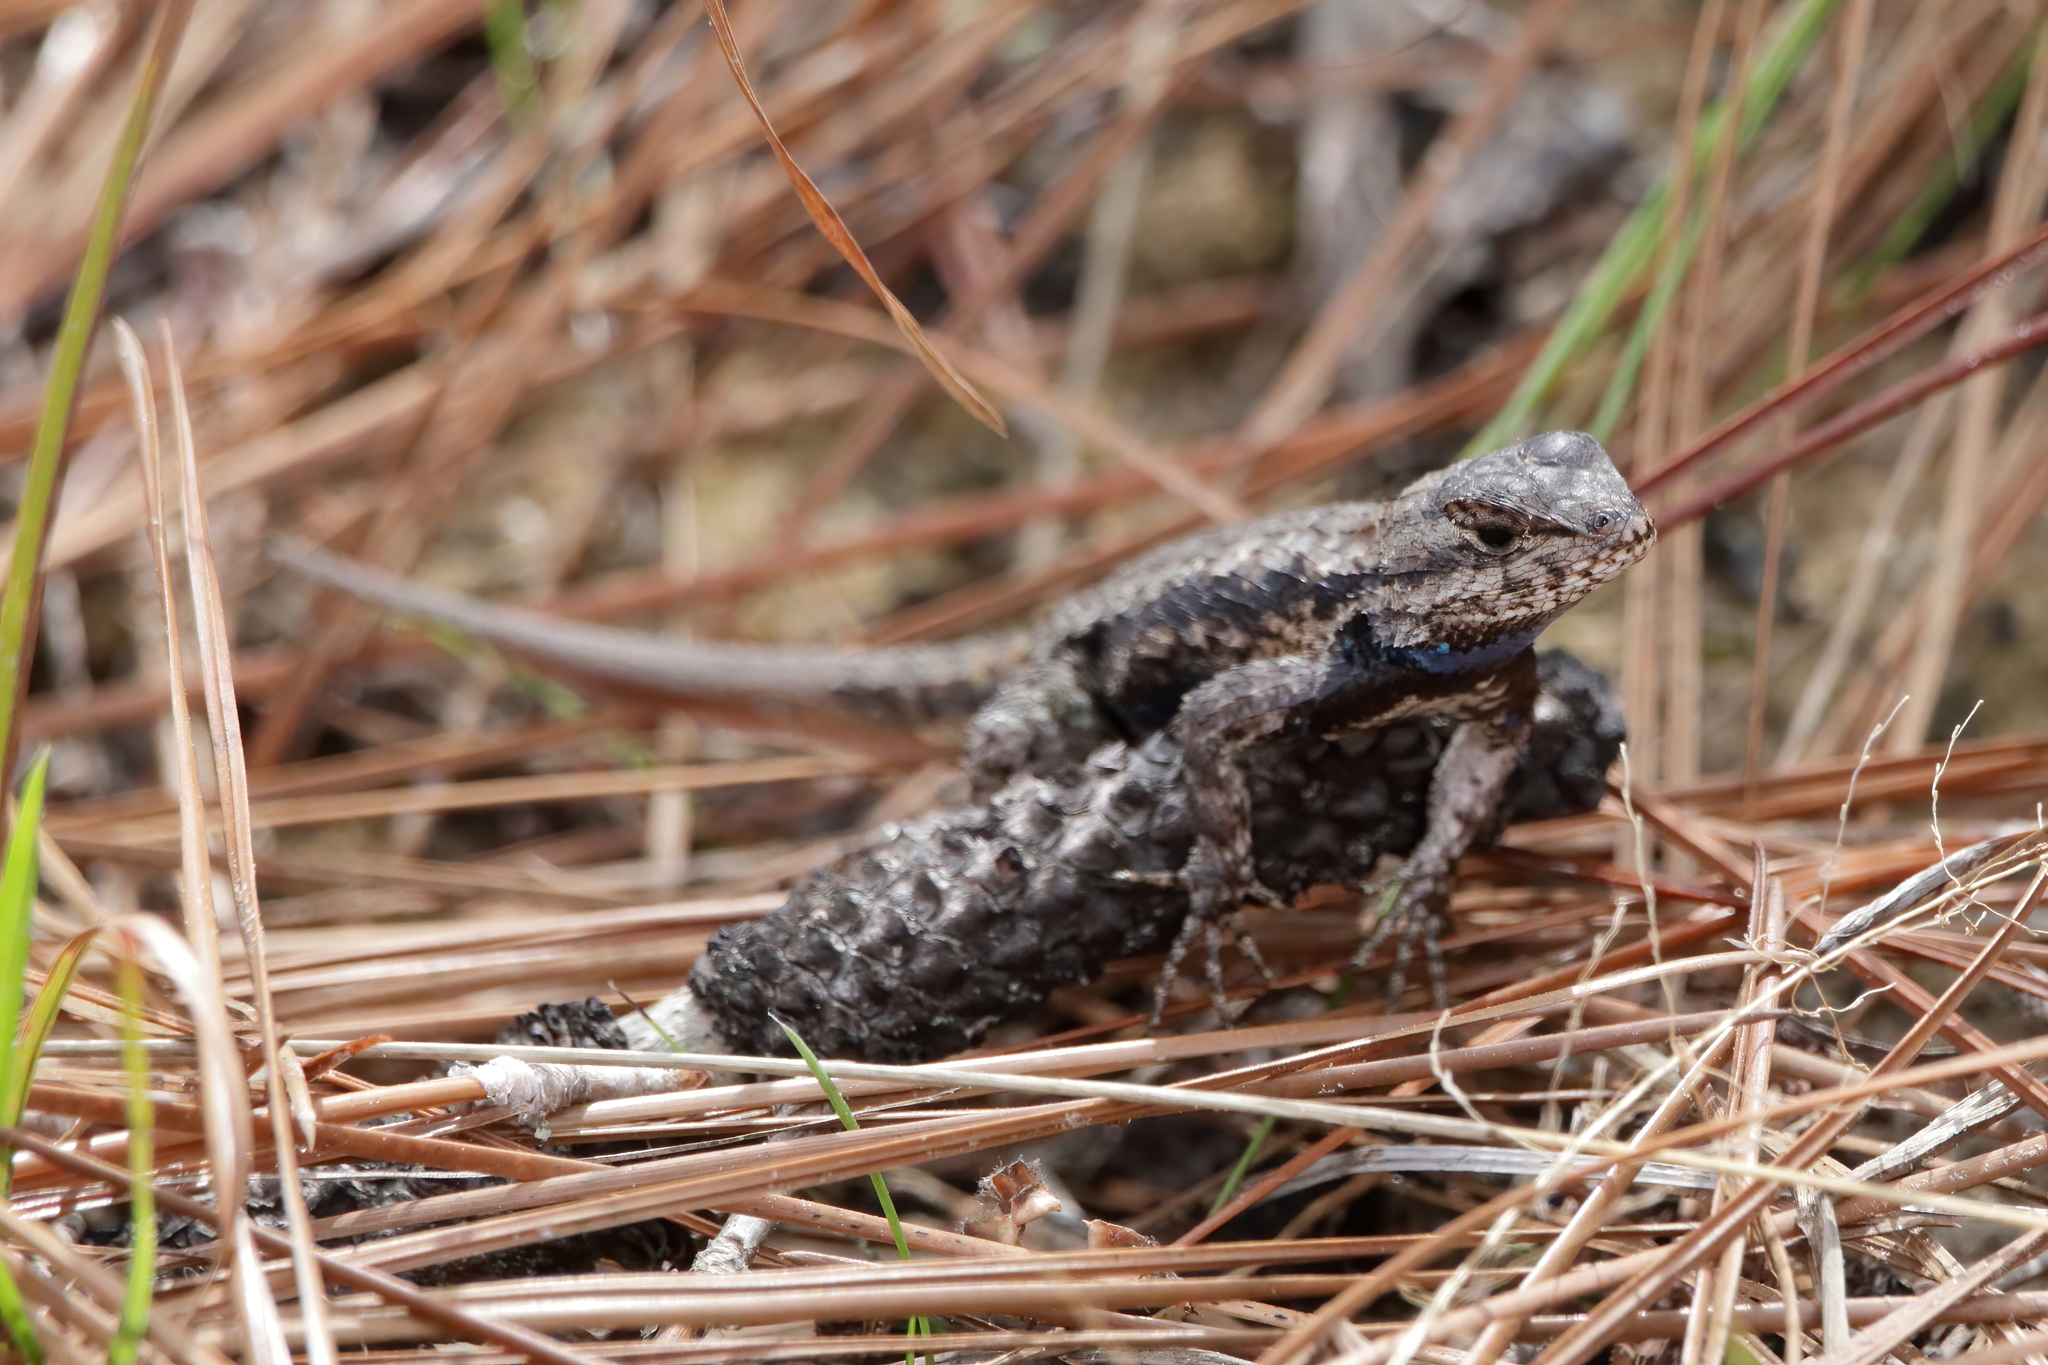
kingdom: Animalia
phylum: Chordata
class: Squamata
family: Phrynosomatidae
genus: Sceloporus
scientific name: Sceloporus undulatus
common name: Eastern fence lizard
